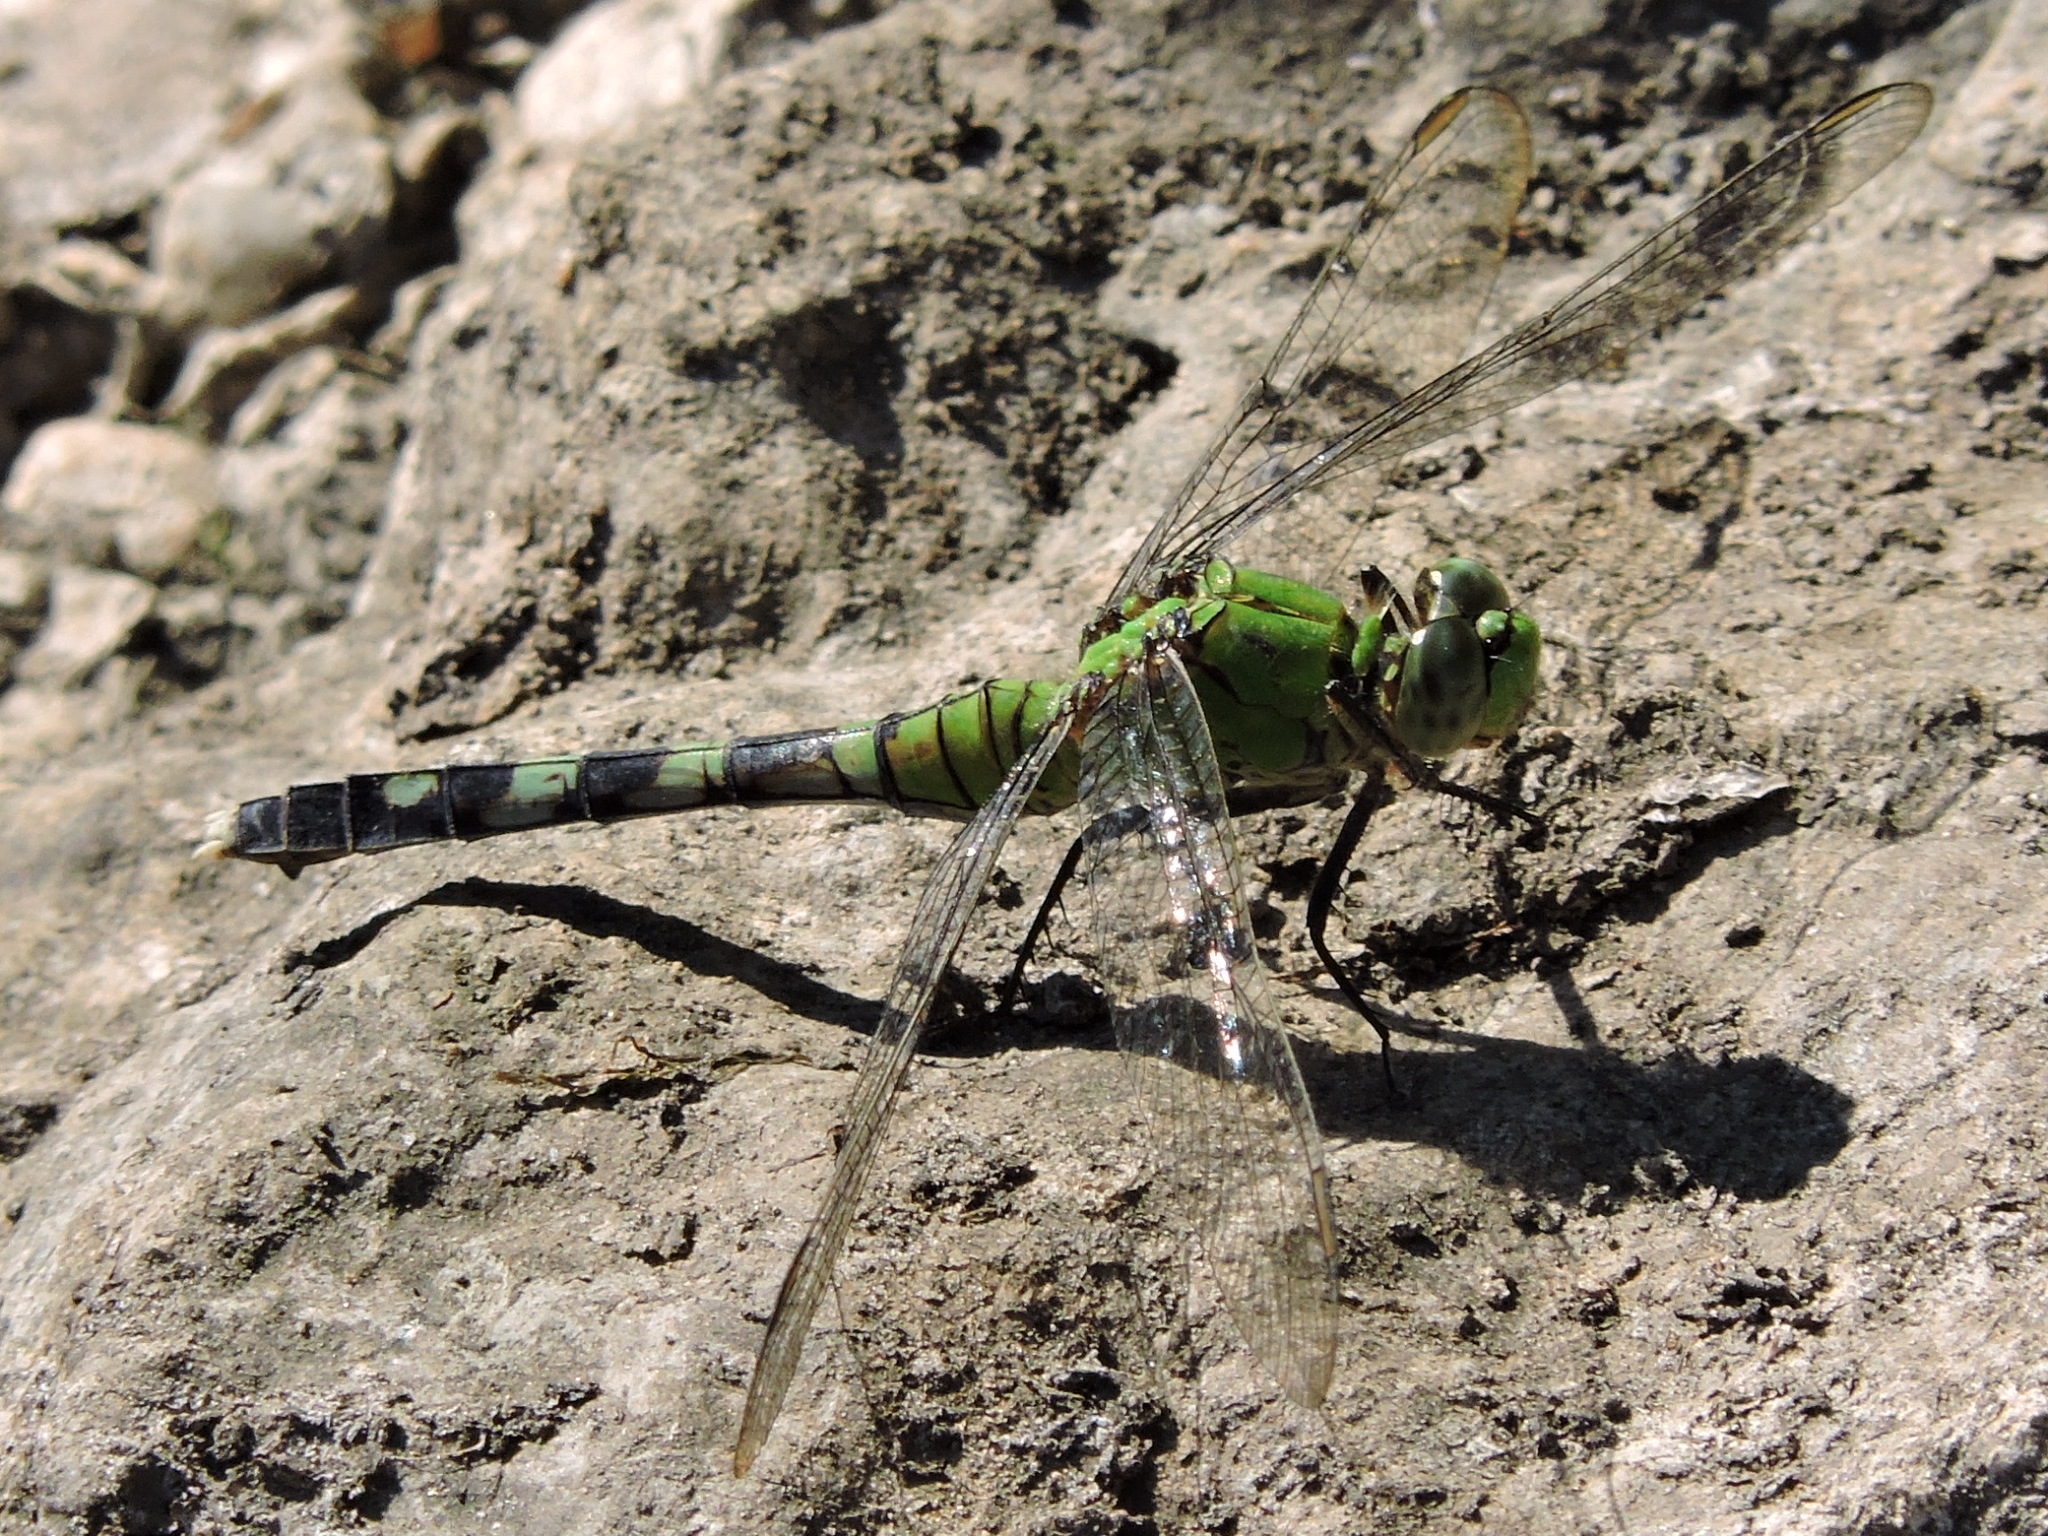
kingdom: Animalia
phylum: Arthropoda
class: Insecta
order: Odonata
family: Libellulidae
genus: Erythemis
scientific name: Erythemis simplicicollis
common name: Eastern pondhawk
